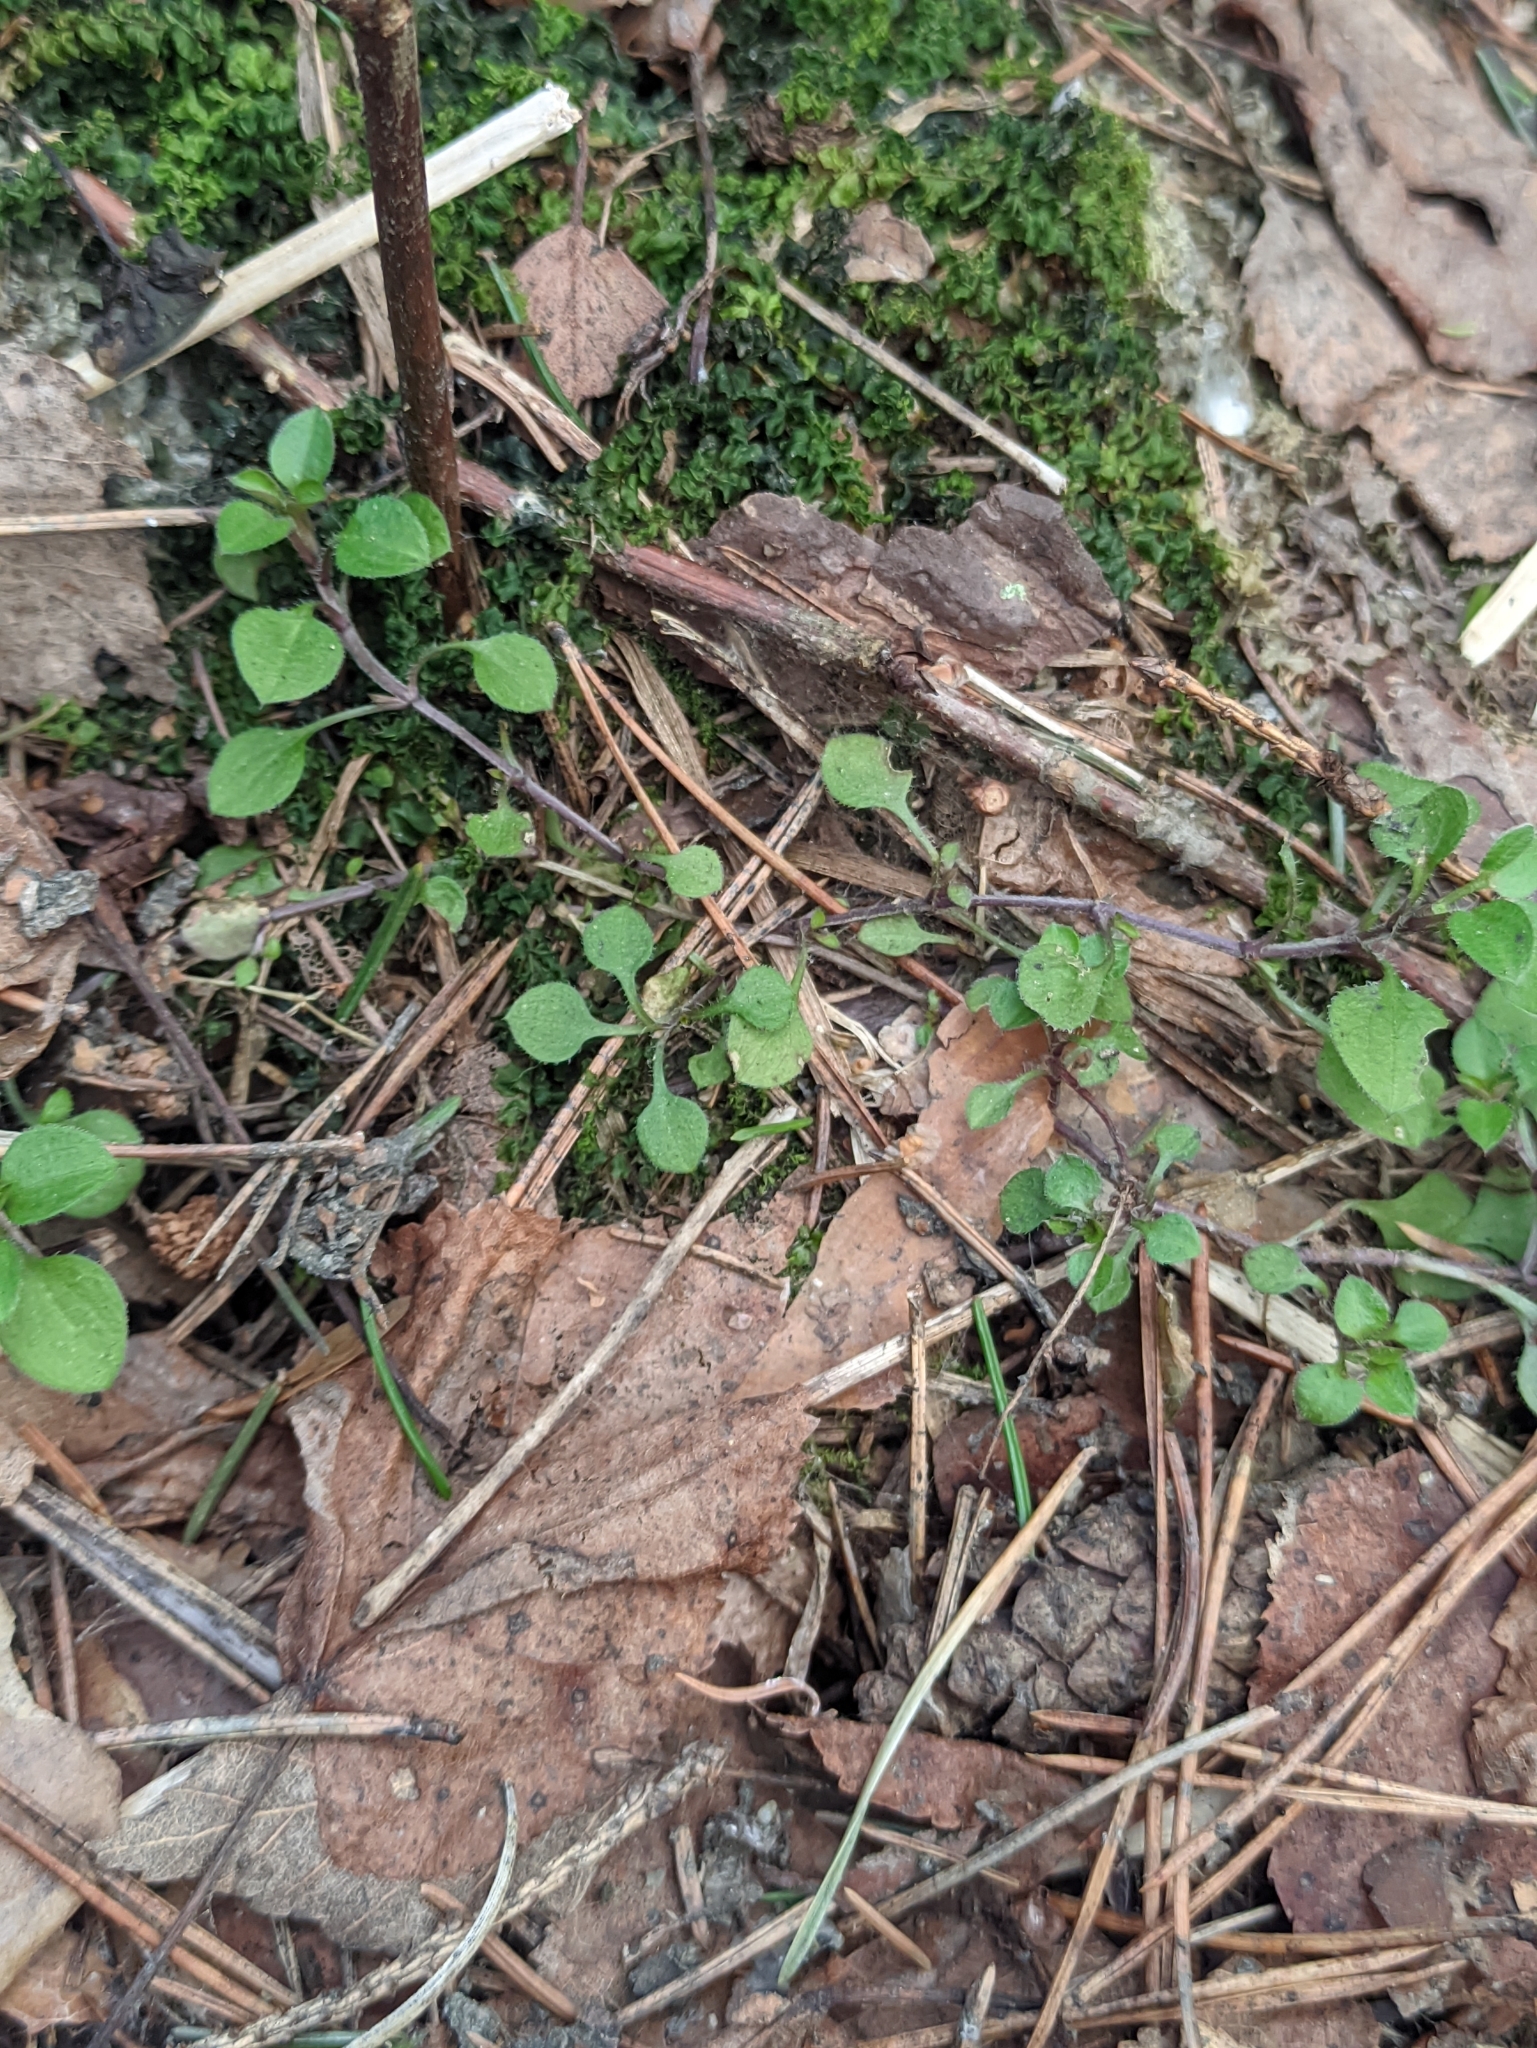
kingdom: Plantae
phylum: Tracheophyta
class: Magnoliopsida
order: Caryophyllales
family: Caryophyllaceae
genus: Moehringia
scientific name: Moehringia trinervia
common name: Three-nerved sandwort
